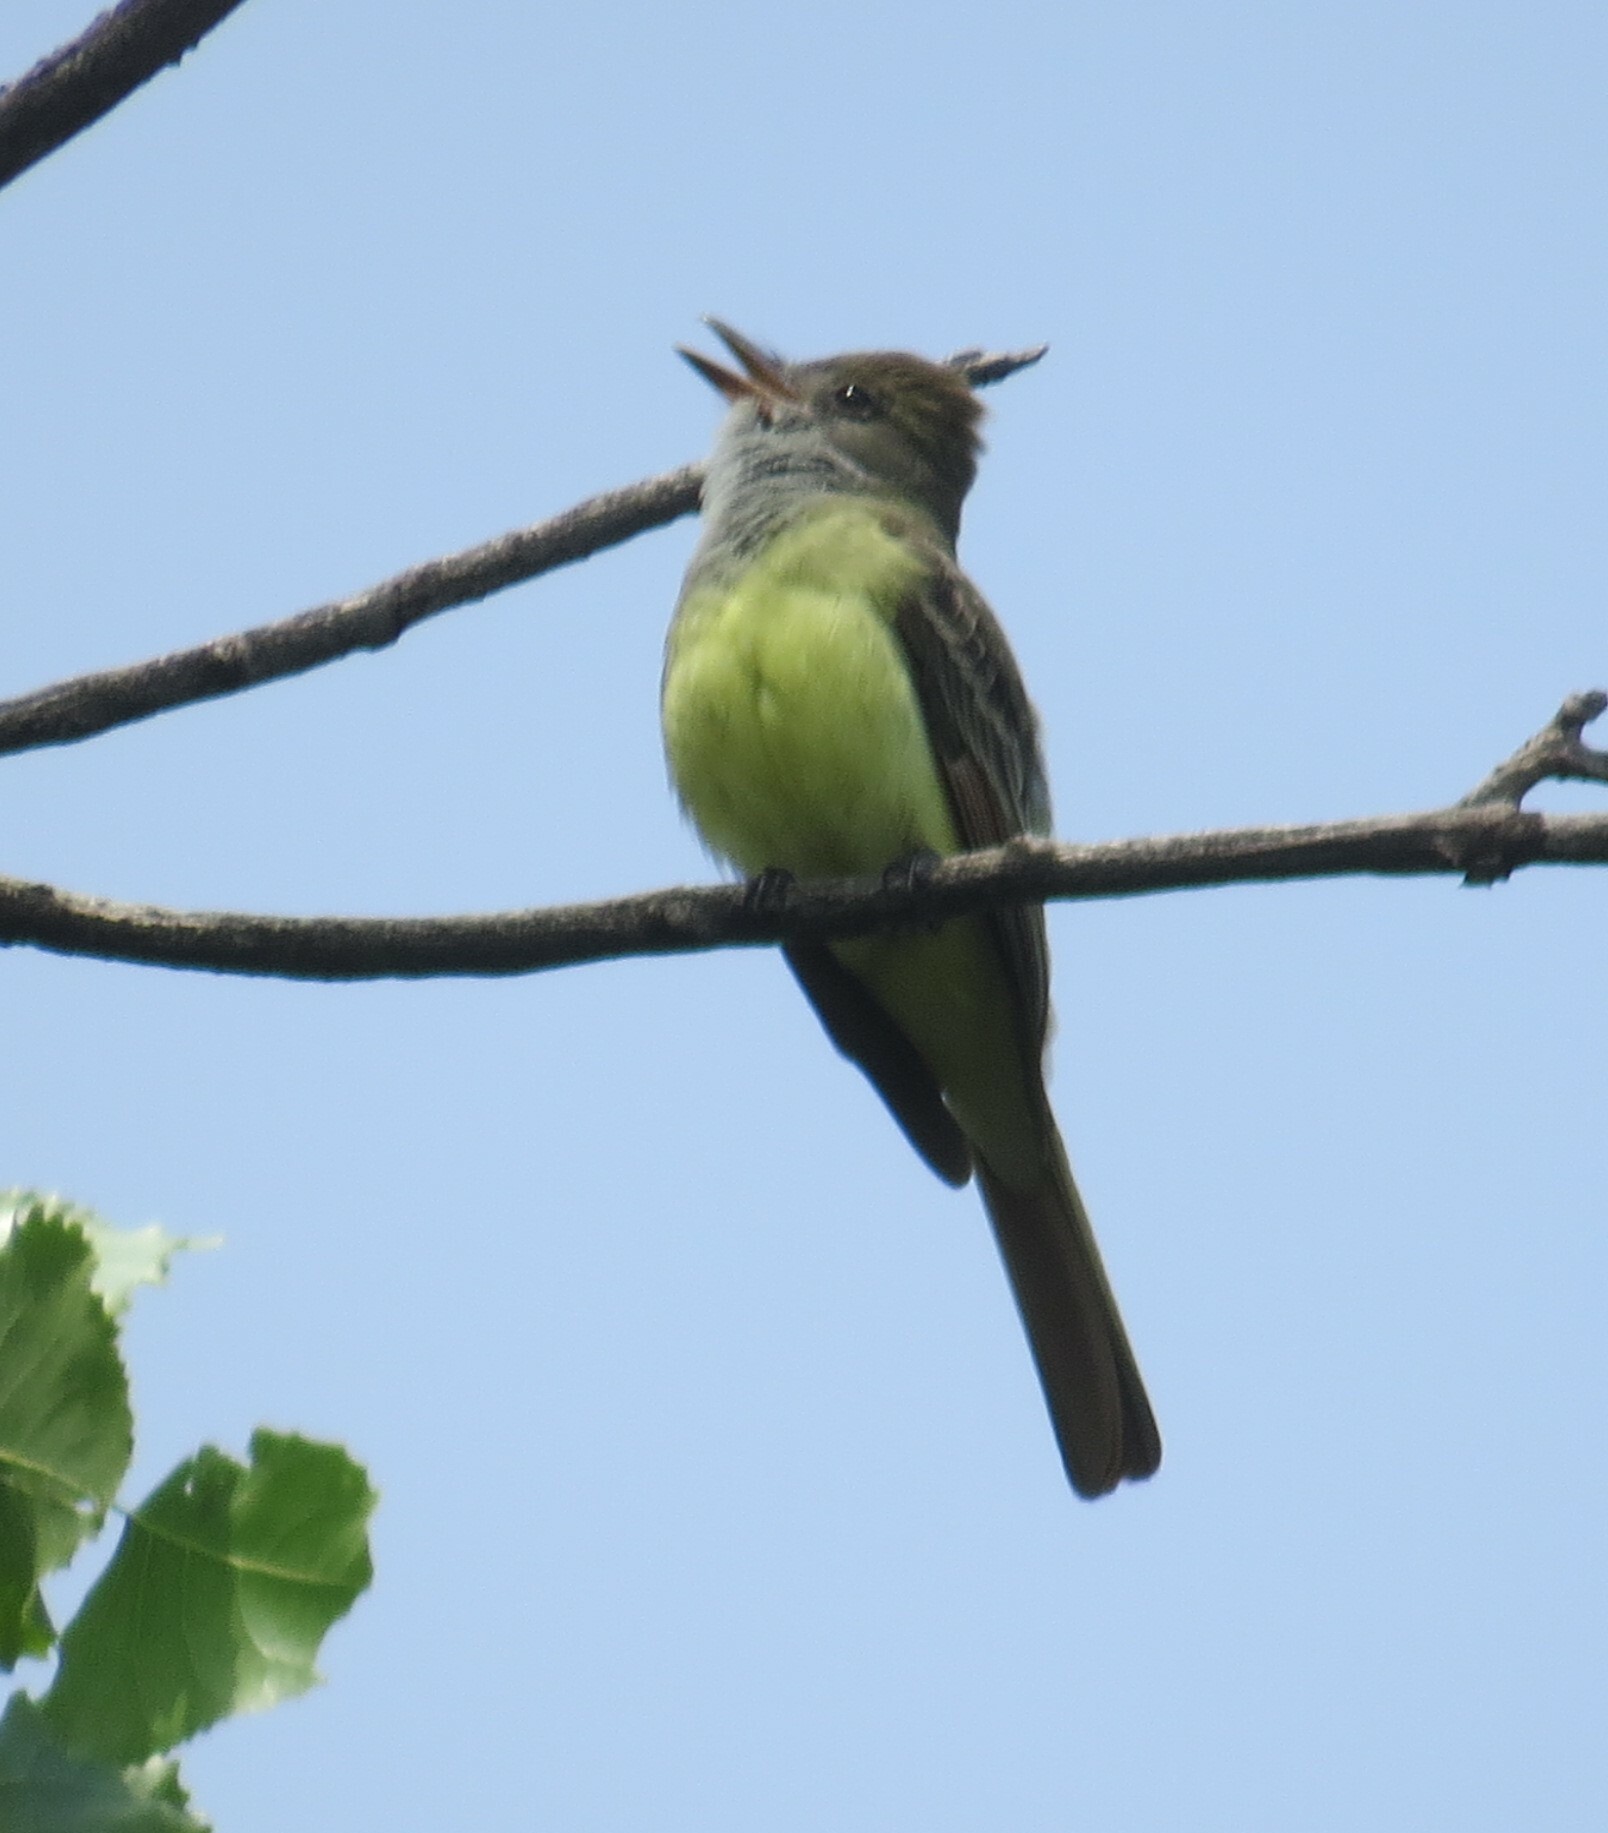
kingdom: Animalia
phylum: Chordata
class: Aves
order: Passeriformes
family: Tyrannidae
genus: Myiarchus
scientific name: Myiarchus crinitus
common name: Great crested flycatcher
